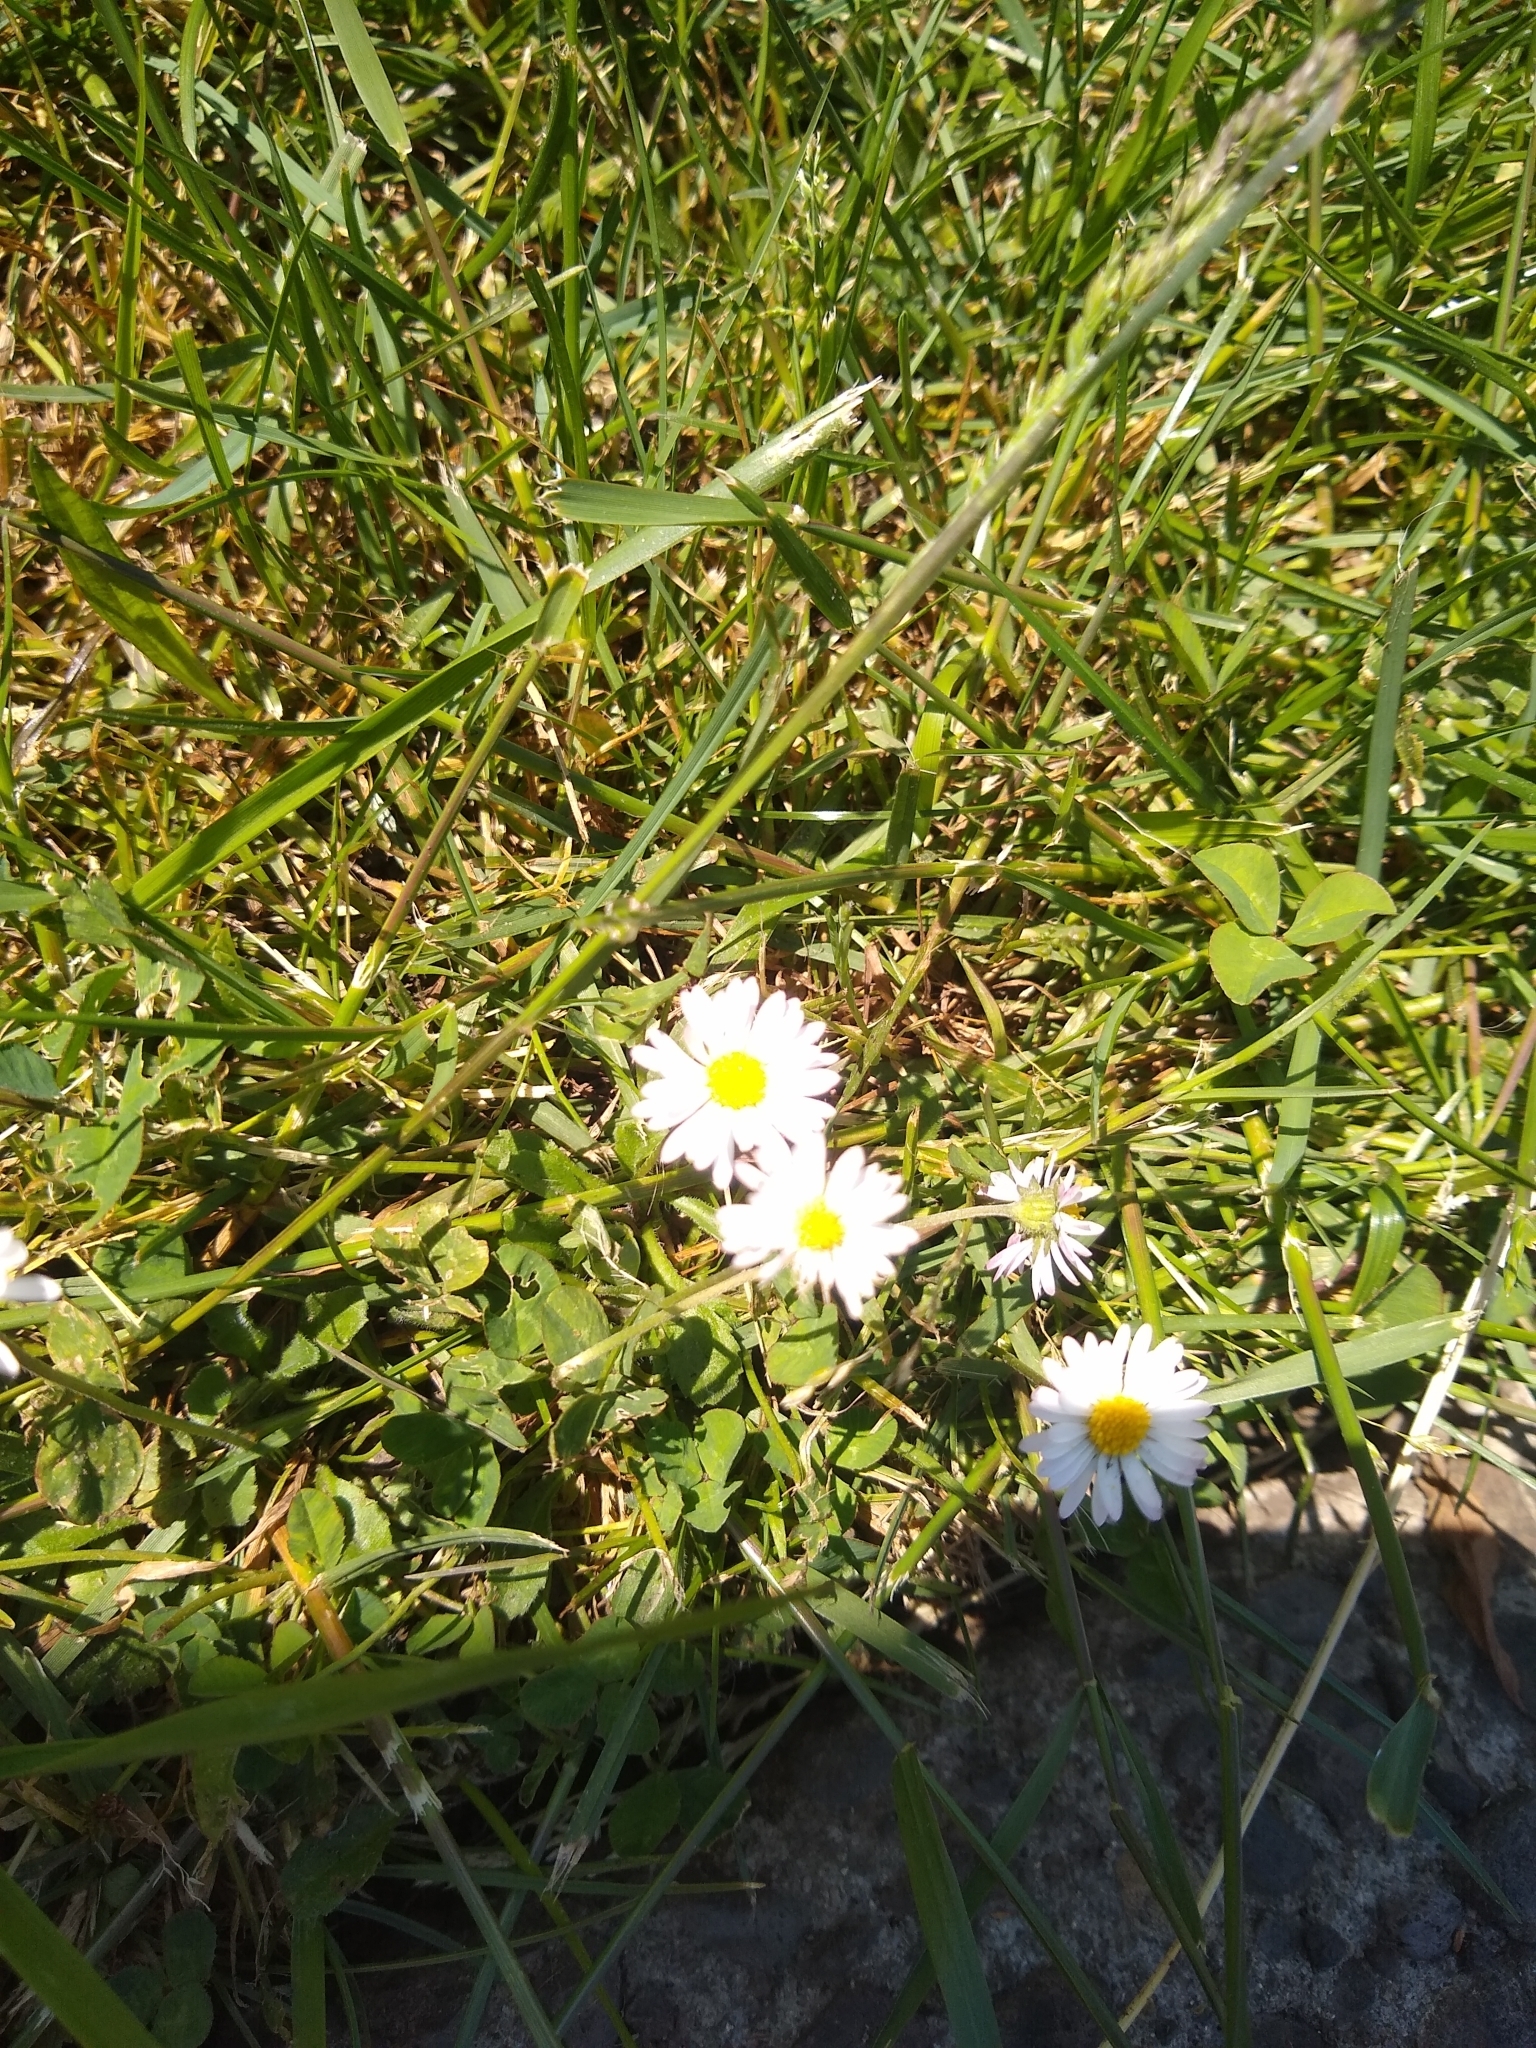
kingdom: Plantae
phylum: Tracheophyta
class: Magnoliopsida
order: Asterales
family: Asteraceae
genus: Bellis
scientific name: Bellis perennis
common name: Lawndaisy
